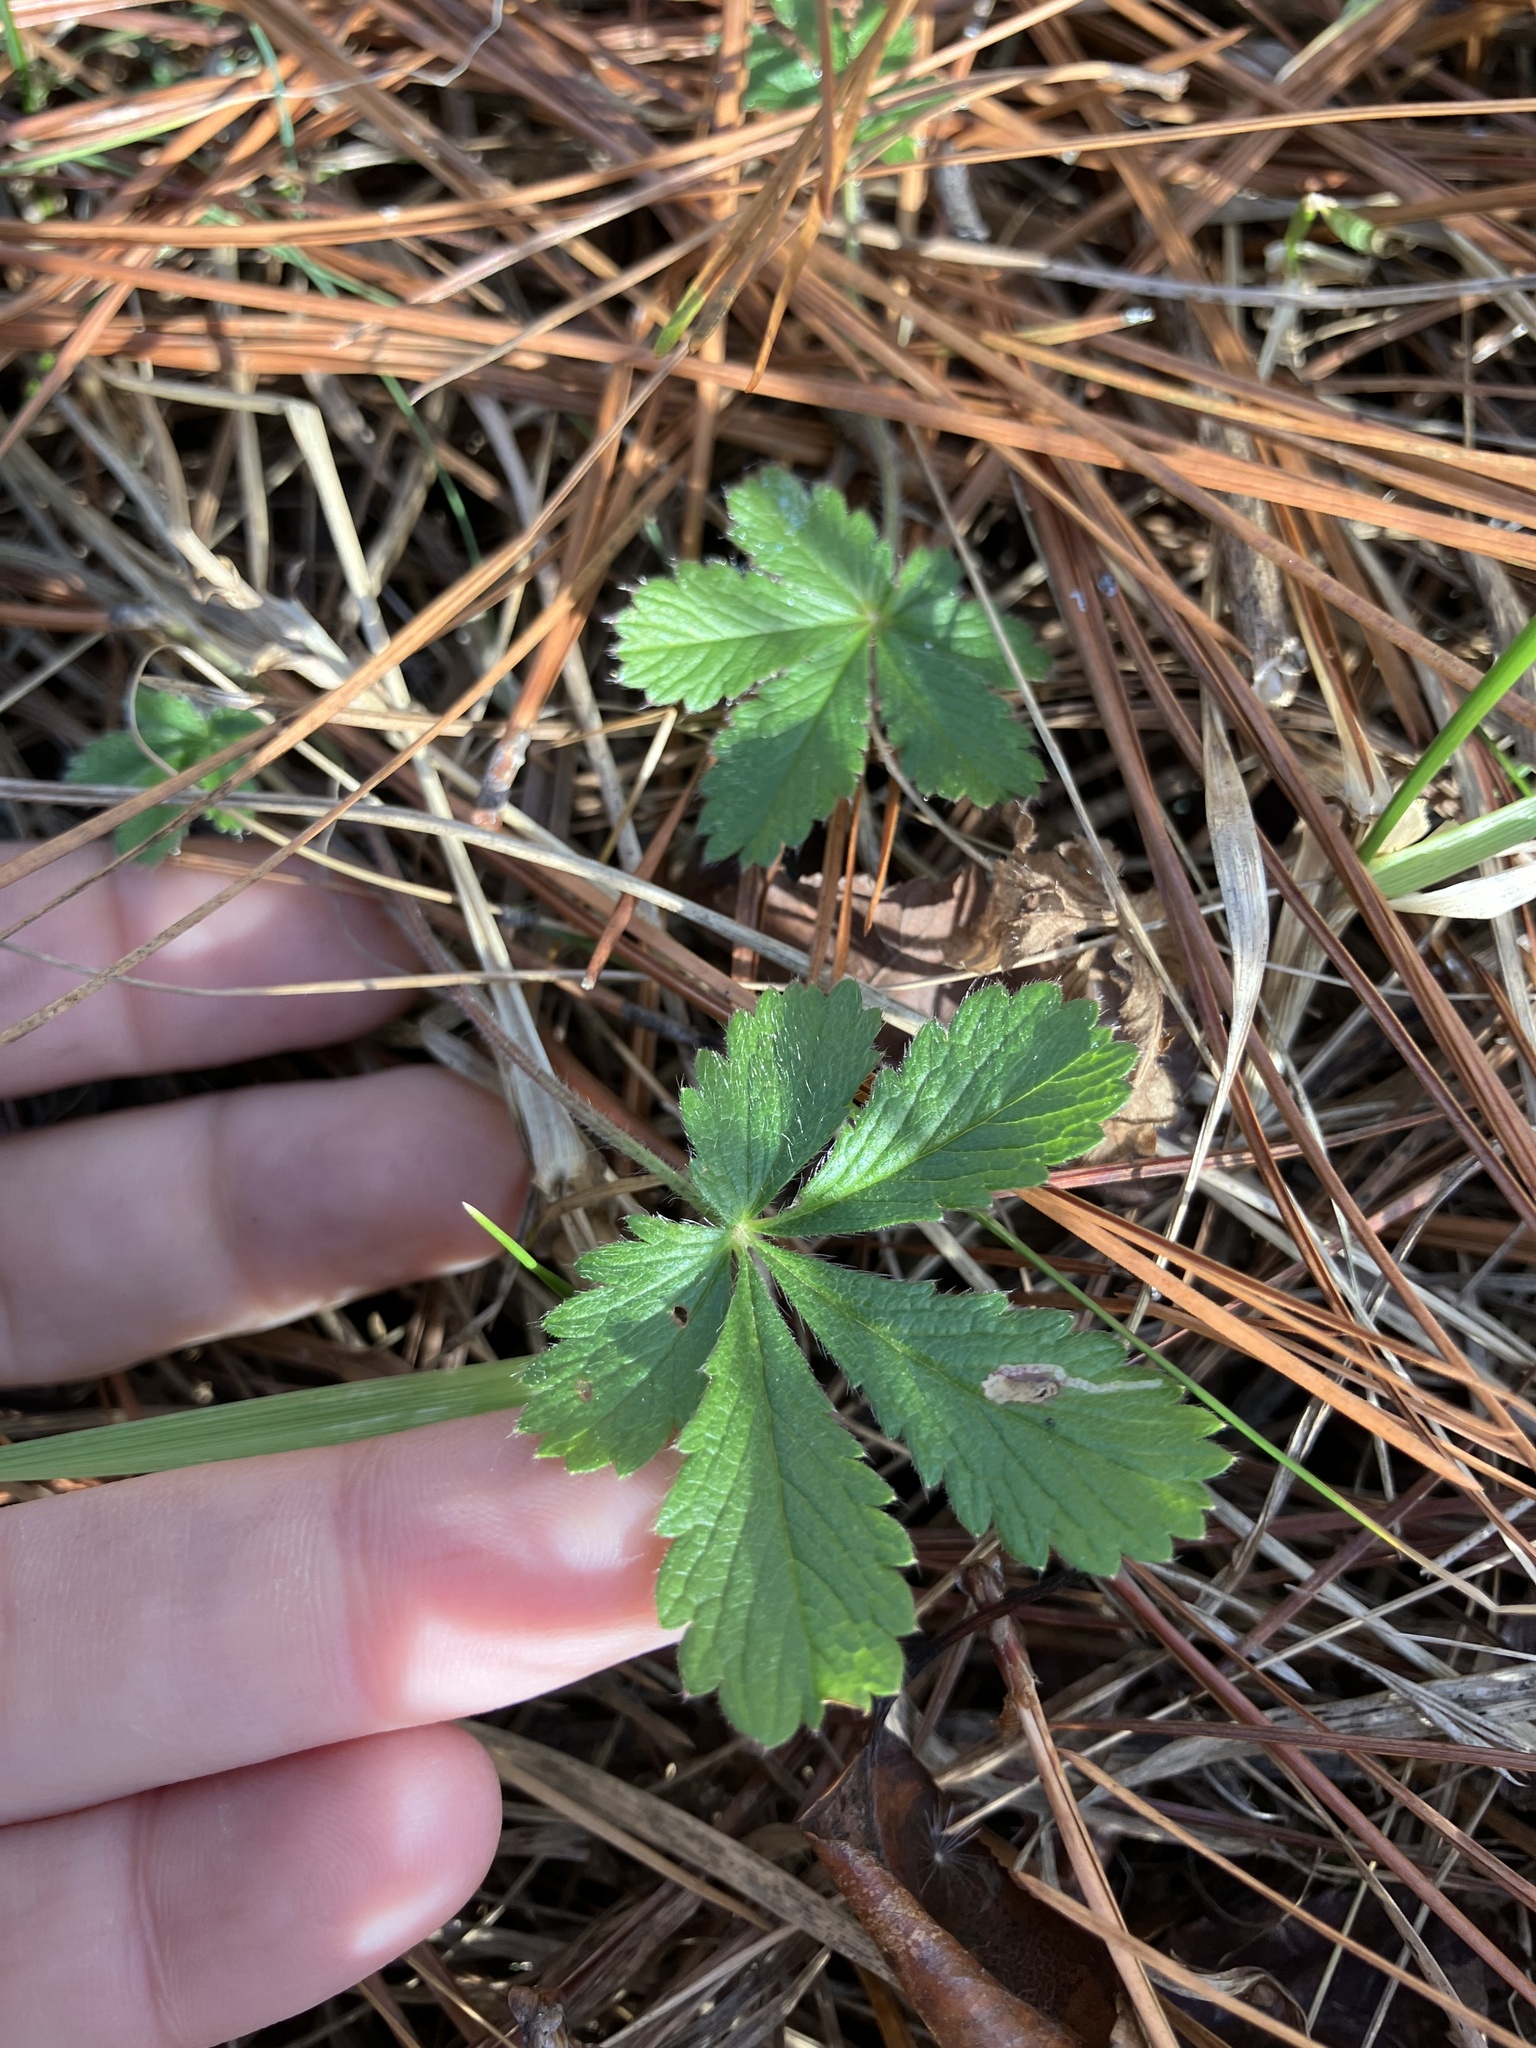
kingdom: Plantae
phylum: Tracheophyta
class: Magnoliopsida
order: Rosales
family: Rosaceae
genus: Potentilla
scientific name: Potentilla simplex
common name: Old field cinquefoil
